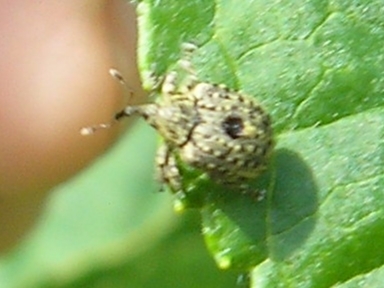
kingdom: Animalia
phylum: Arthropoda
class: Insecta
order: Coleoptera
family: Curculionidae
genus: Cionus
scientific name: Cionus hortulanus
